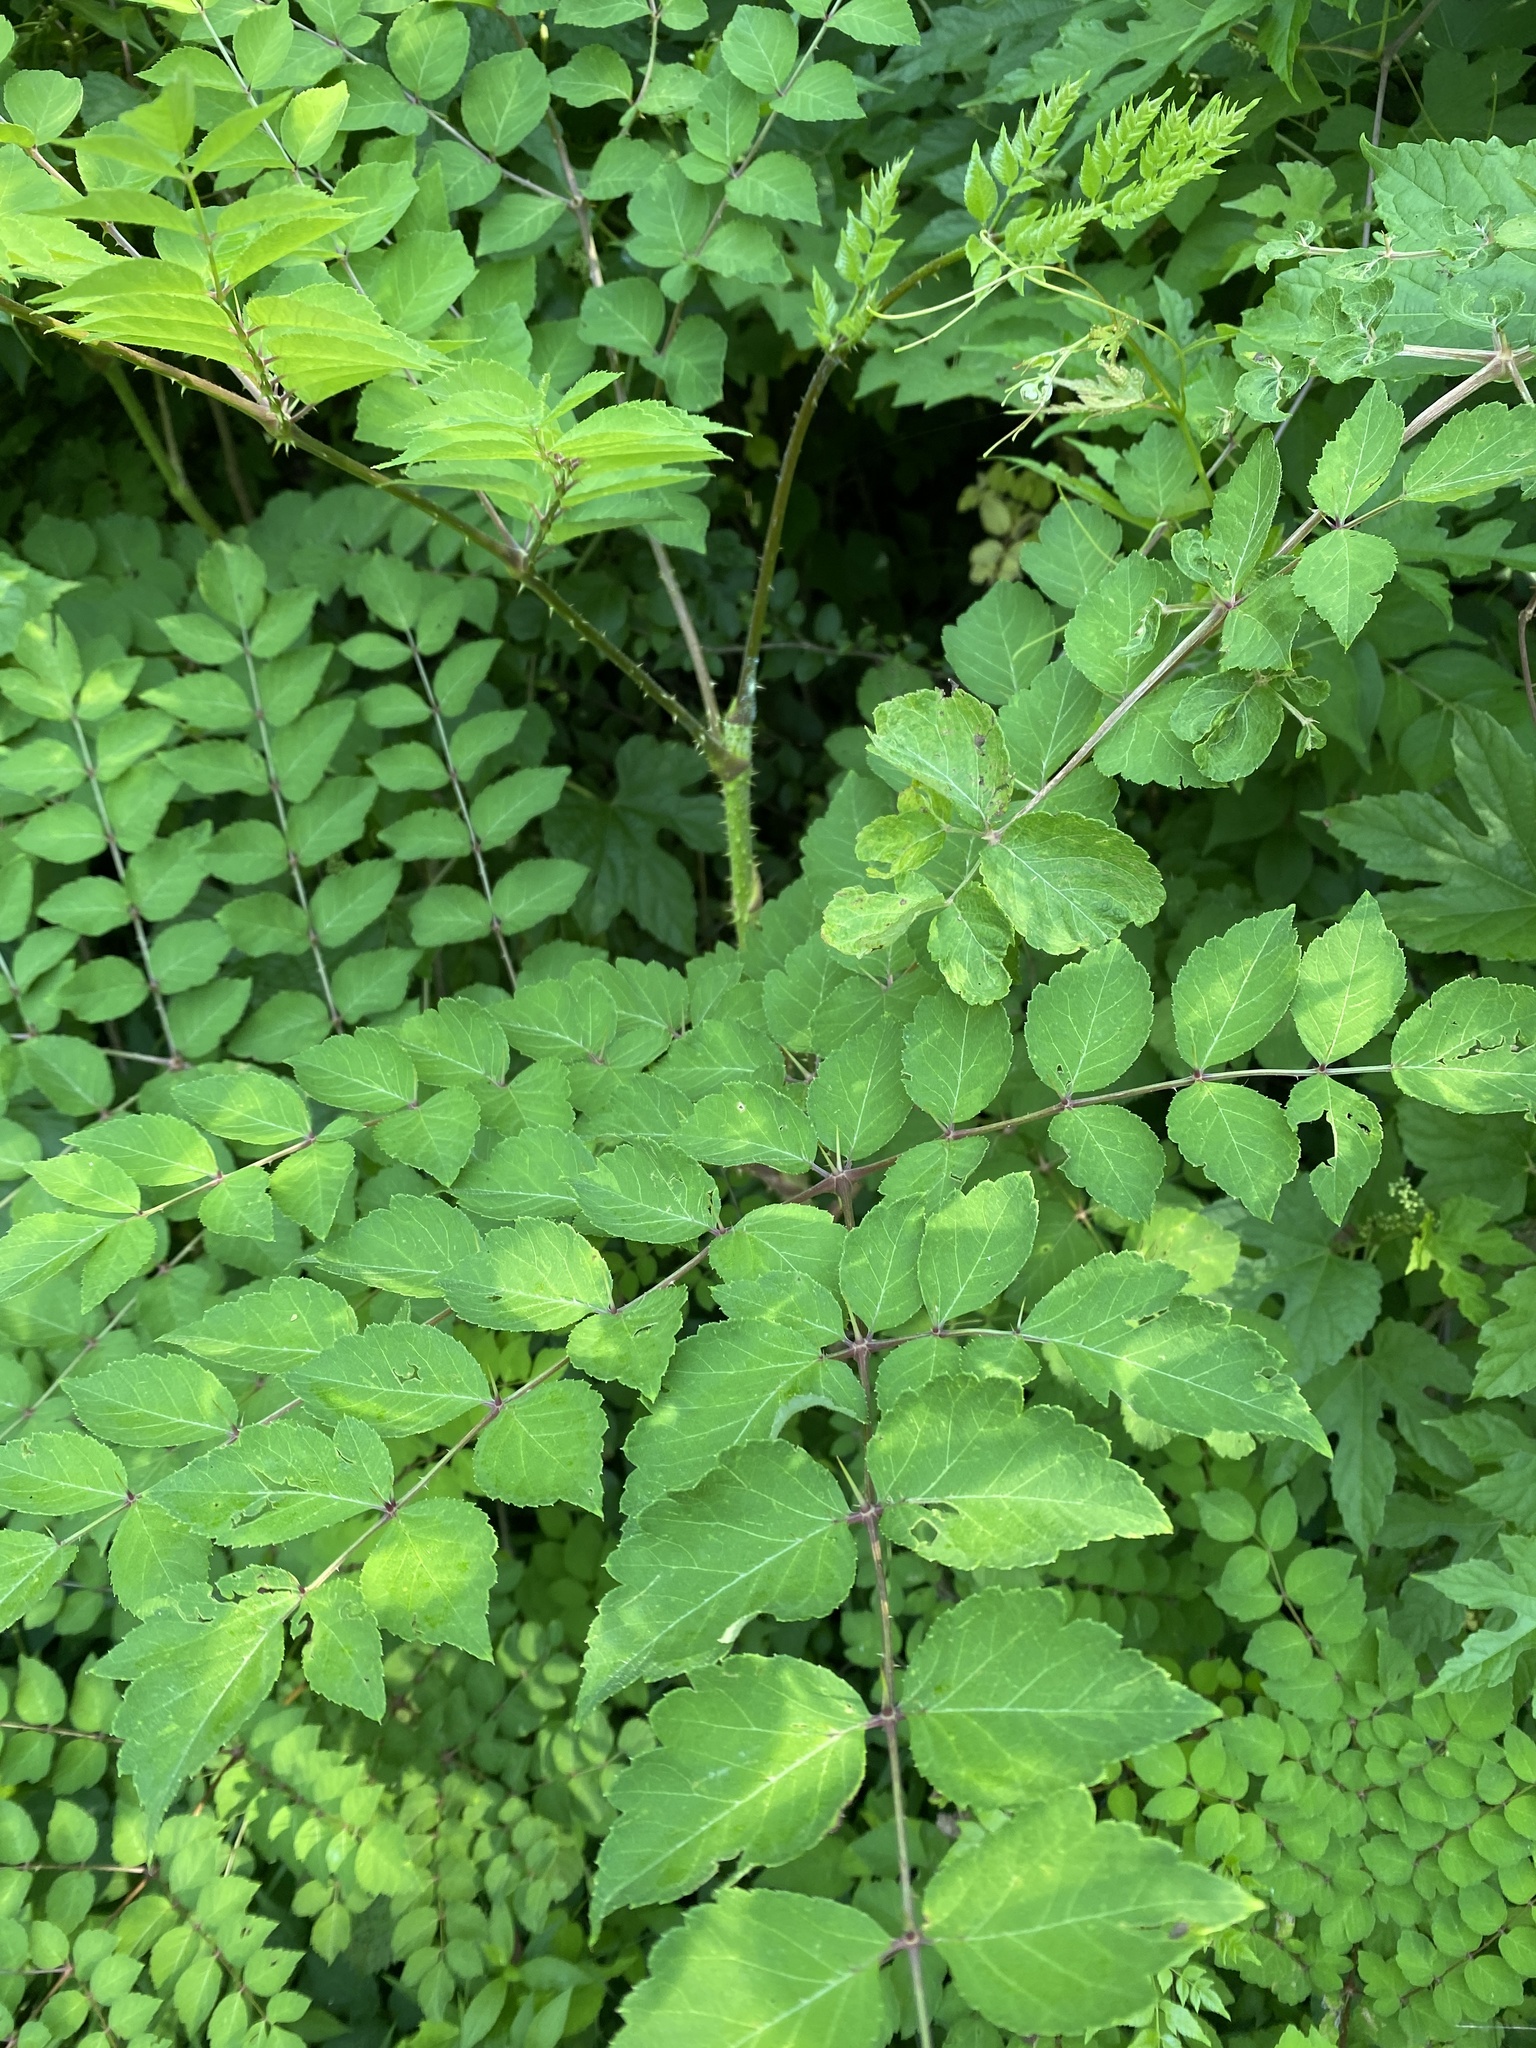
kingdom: Plantae
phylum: Tracheophyta
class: Magnoliopsida
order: Apiales
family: Araliaceae
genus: Aralia
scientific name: Aralia elata
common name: Japanese angelica-tree
